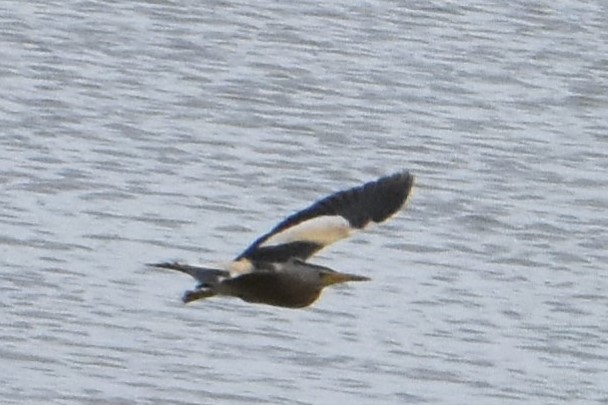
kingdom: Animalia
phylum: Chordata
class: Aves
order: Pelecaniformes
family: Ardeidae
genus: Ixobrychus
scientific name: Ixobrychus minutus
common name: Little bittern
